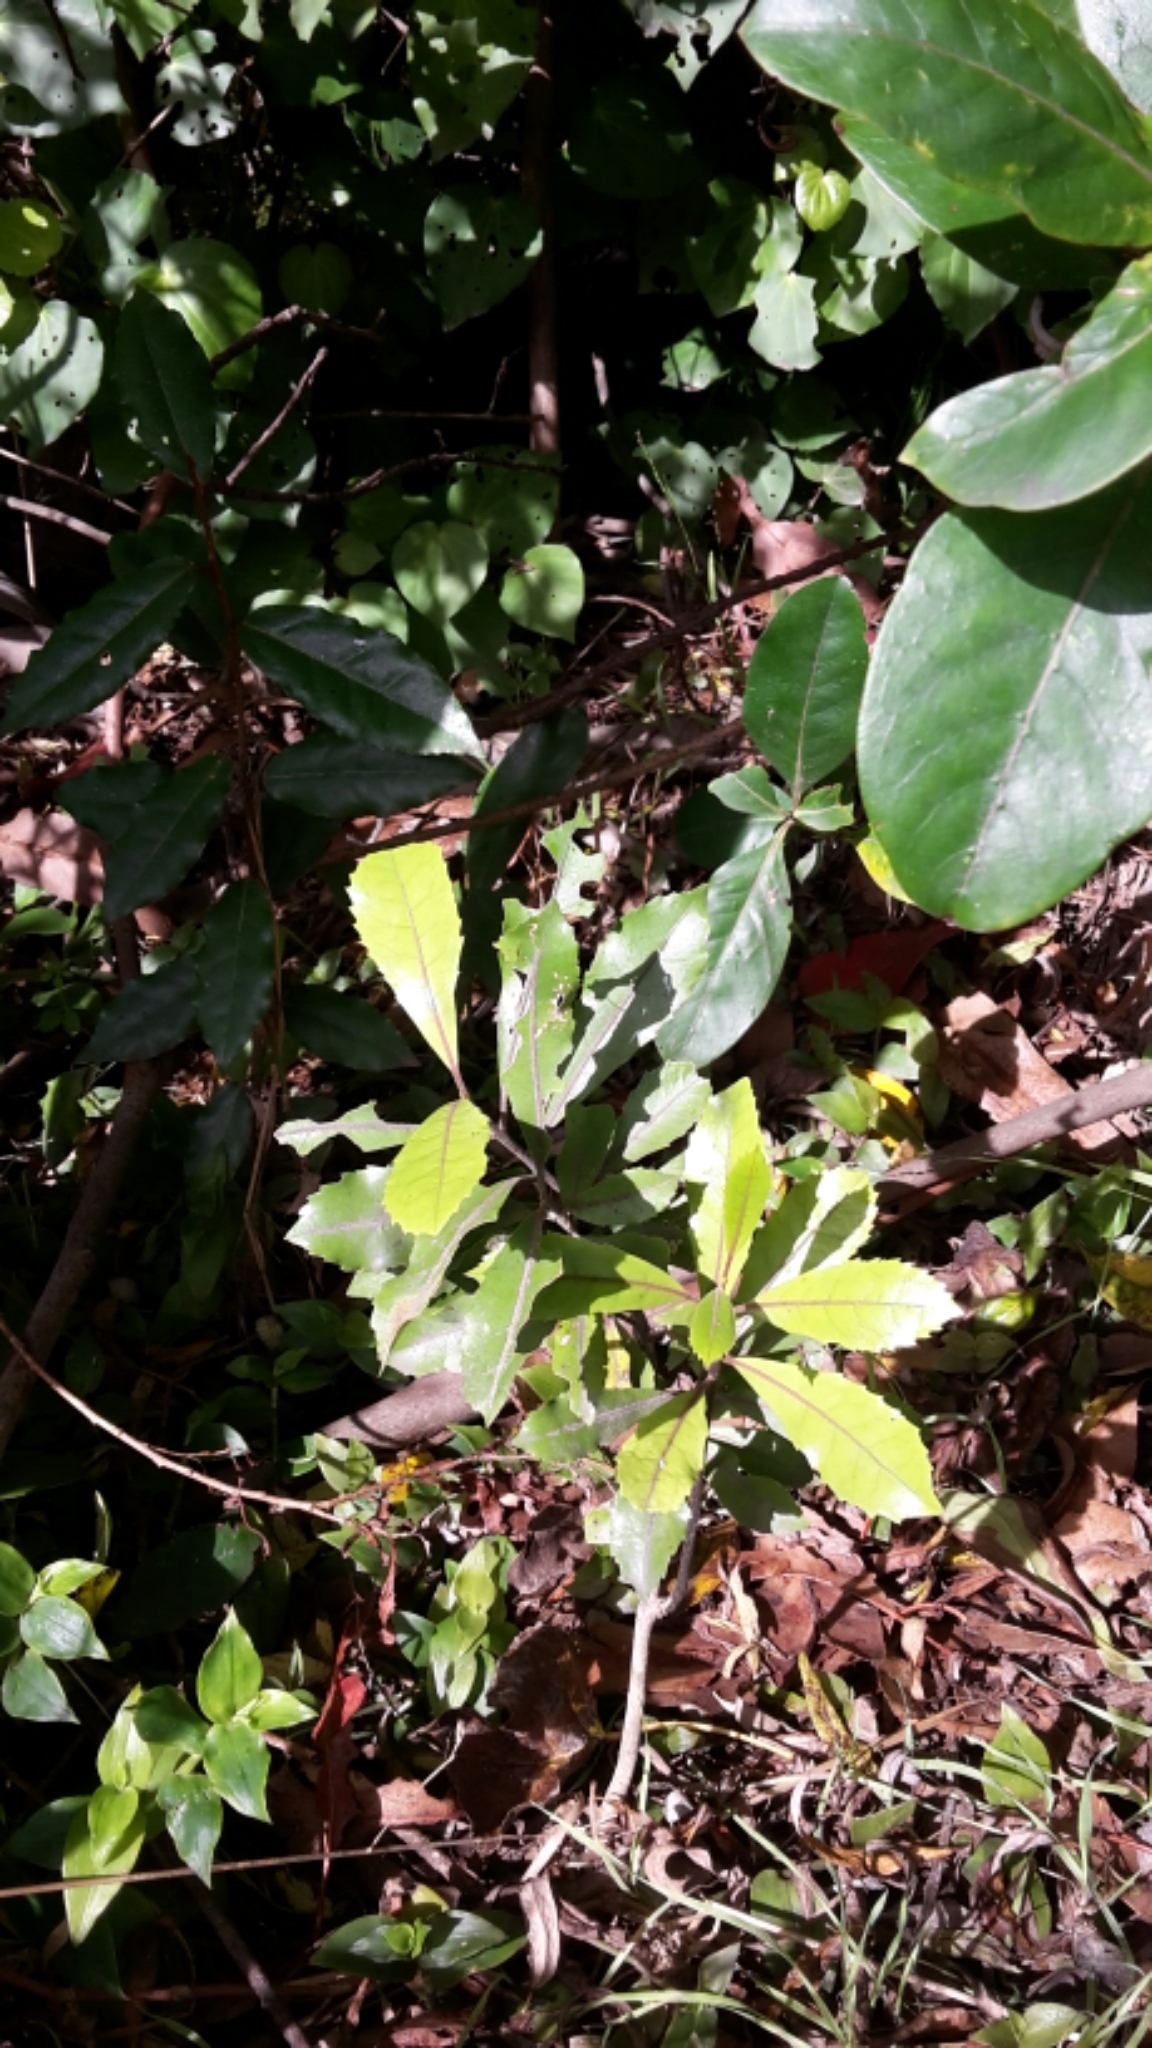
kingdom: Plantae
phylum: Tracheophyta
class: Magnoliopsida
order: Laurales
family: Monimiaceae
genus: Hedycarya
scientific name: Hedycarya arborea
